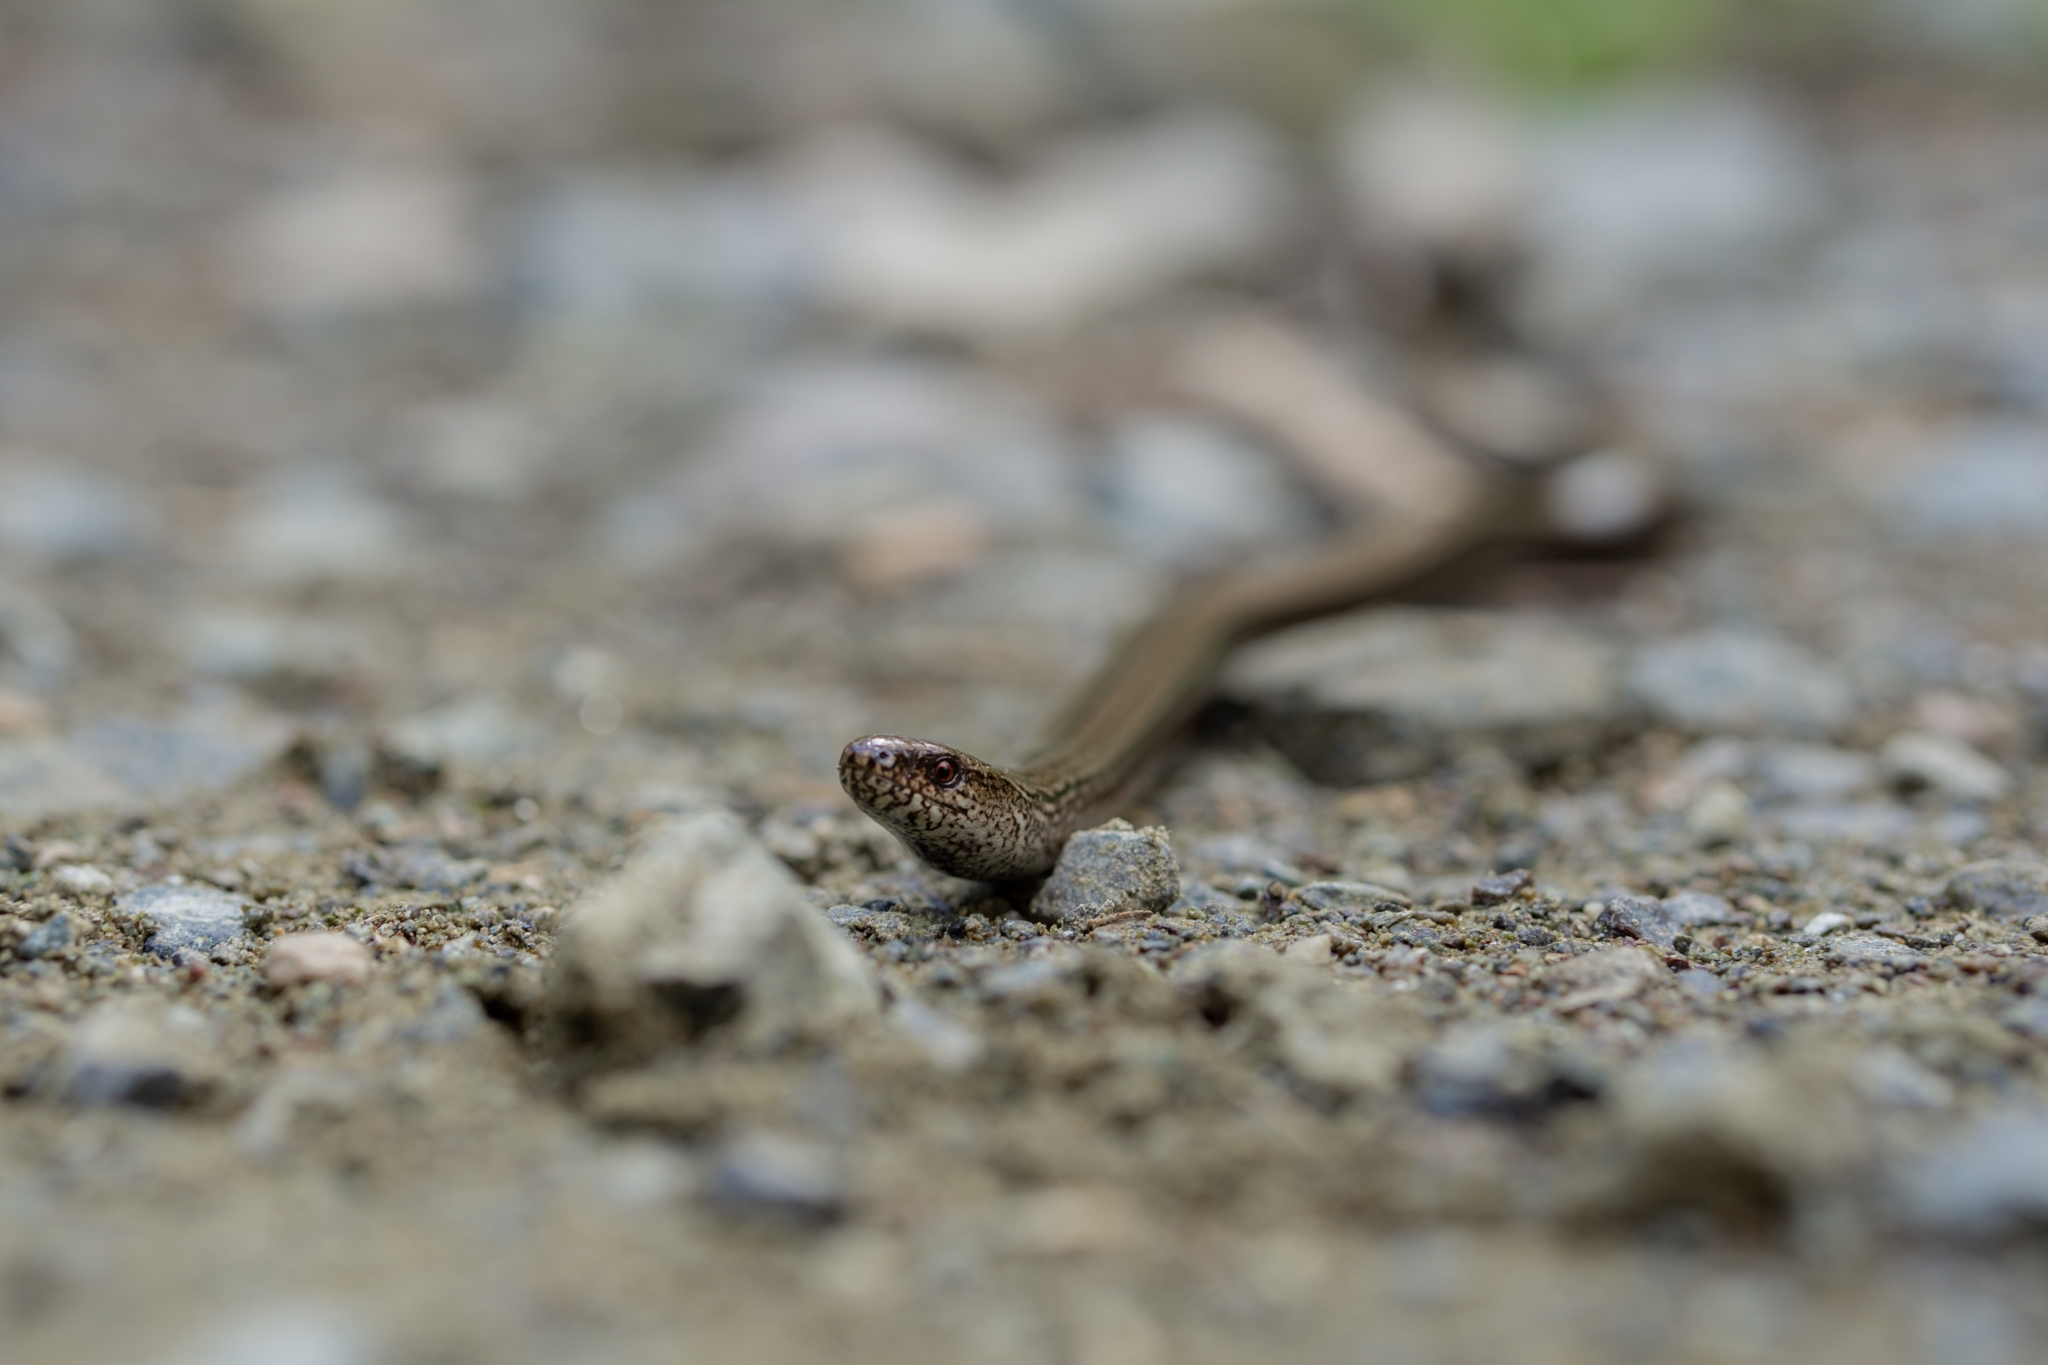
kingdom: Animalia
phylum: Chordata
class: Squamata
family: Anguidae
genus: Anguis
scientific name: Anguis fragilis
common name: Slow worm
